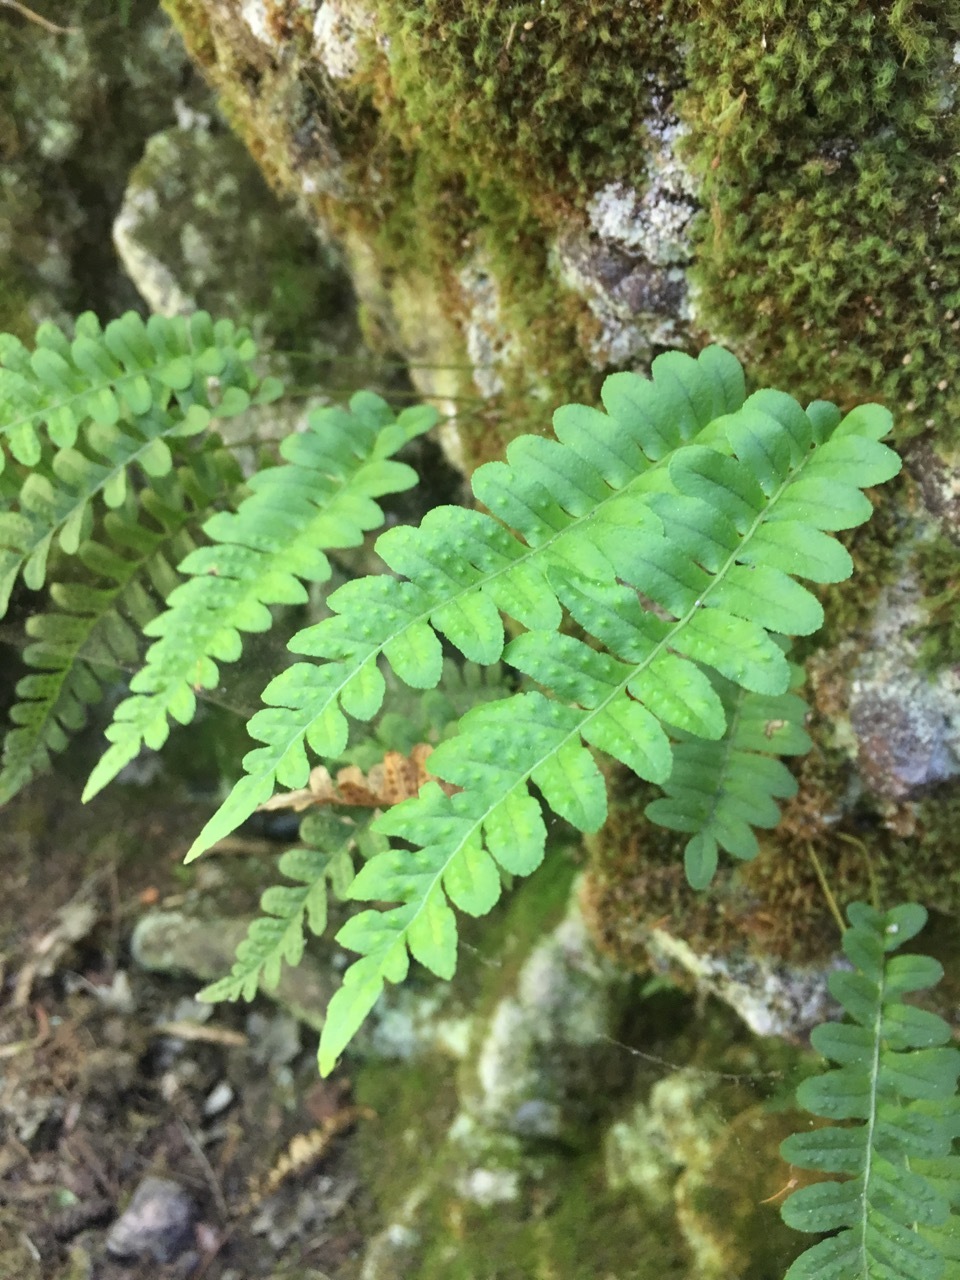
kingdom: Plantae
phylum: Tracheophyta
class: Polypodiopsida
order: Polypodiales
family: Polypodiaceae
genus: Polypodium
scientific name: Polypodium hesperium
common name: Western polypody
